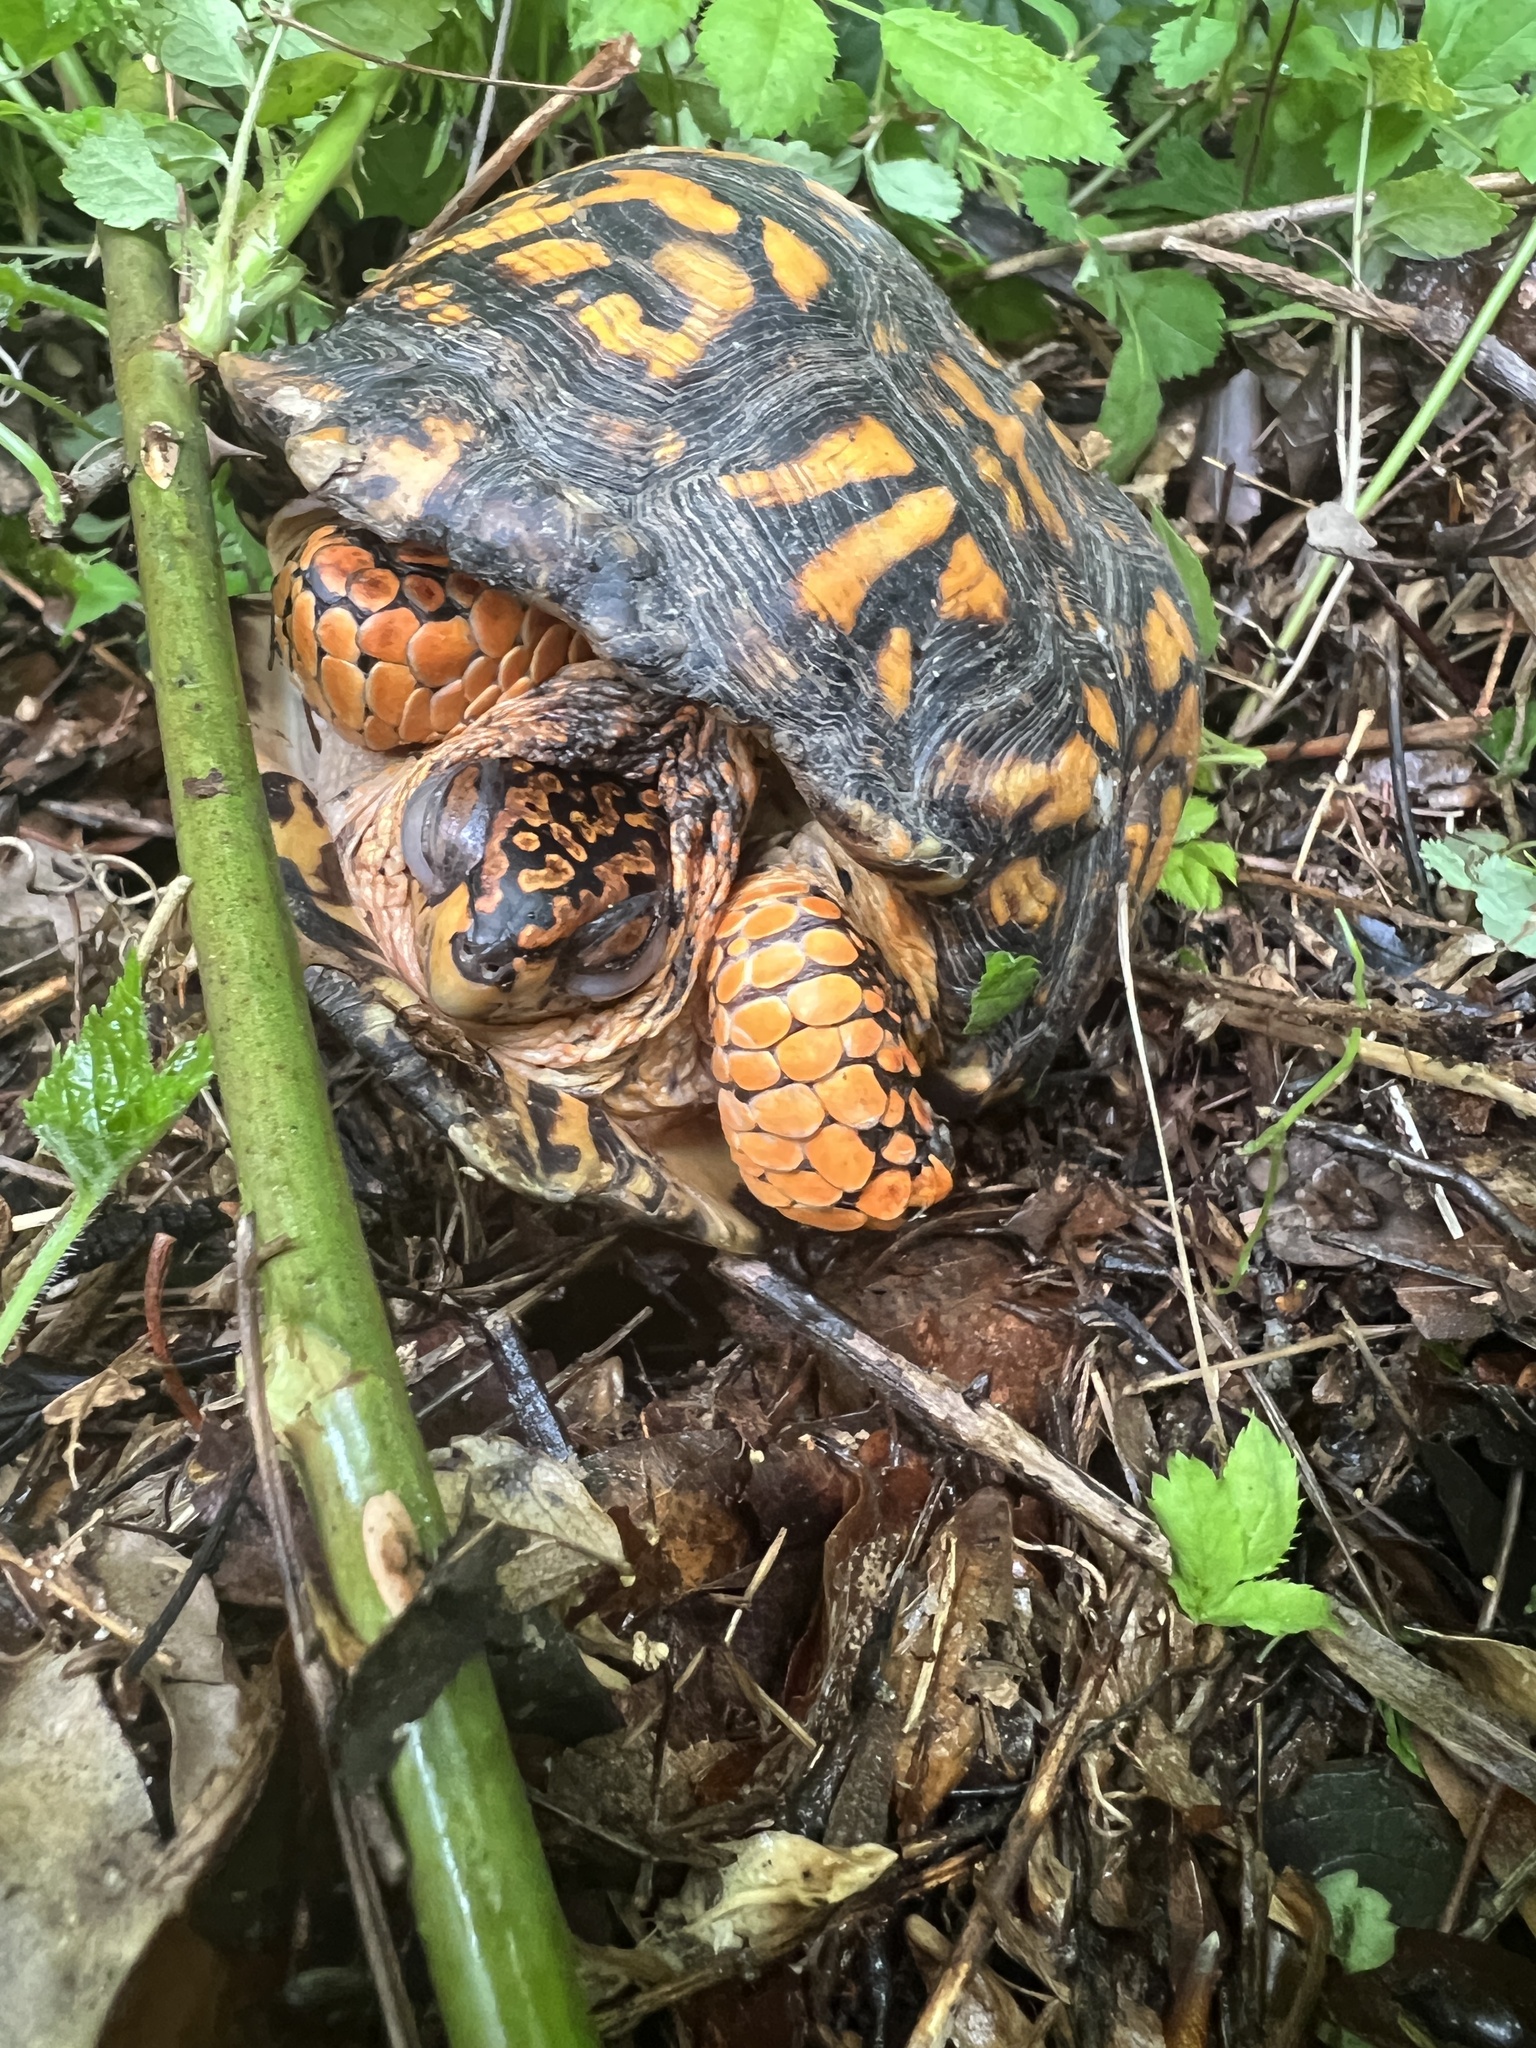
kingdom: Animalia
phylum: Chordata
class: Testudines
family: Emydidae
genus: Terrapene
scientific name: Terrapene carolina
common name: Common box turtle
